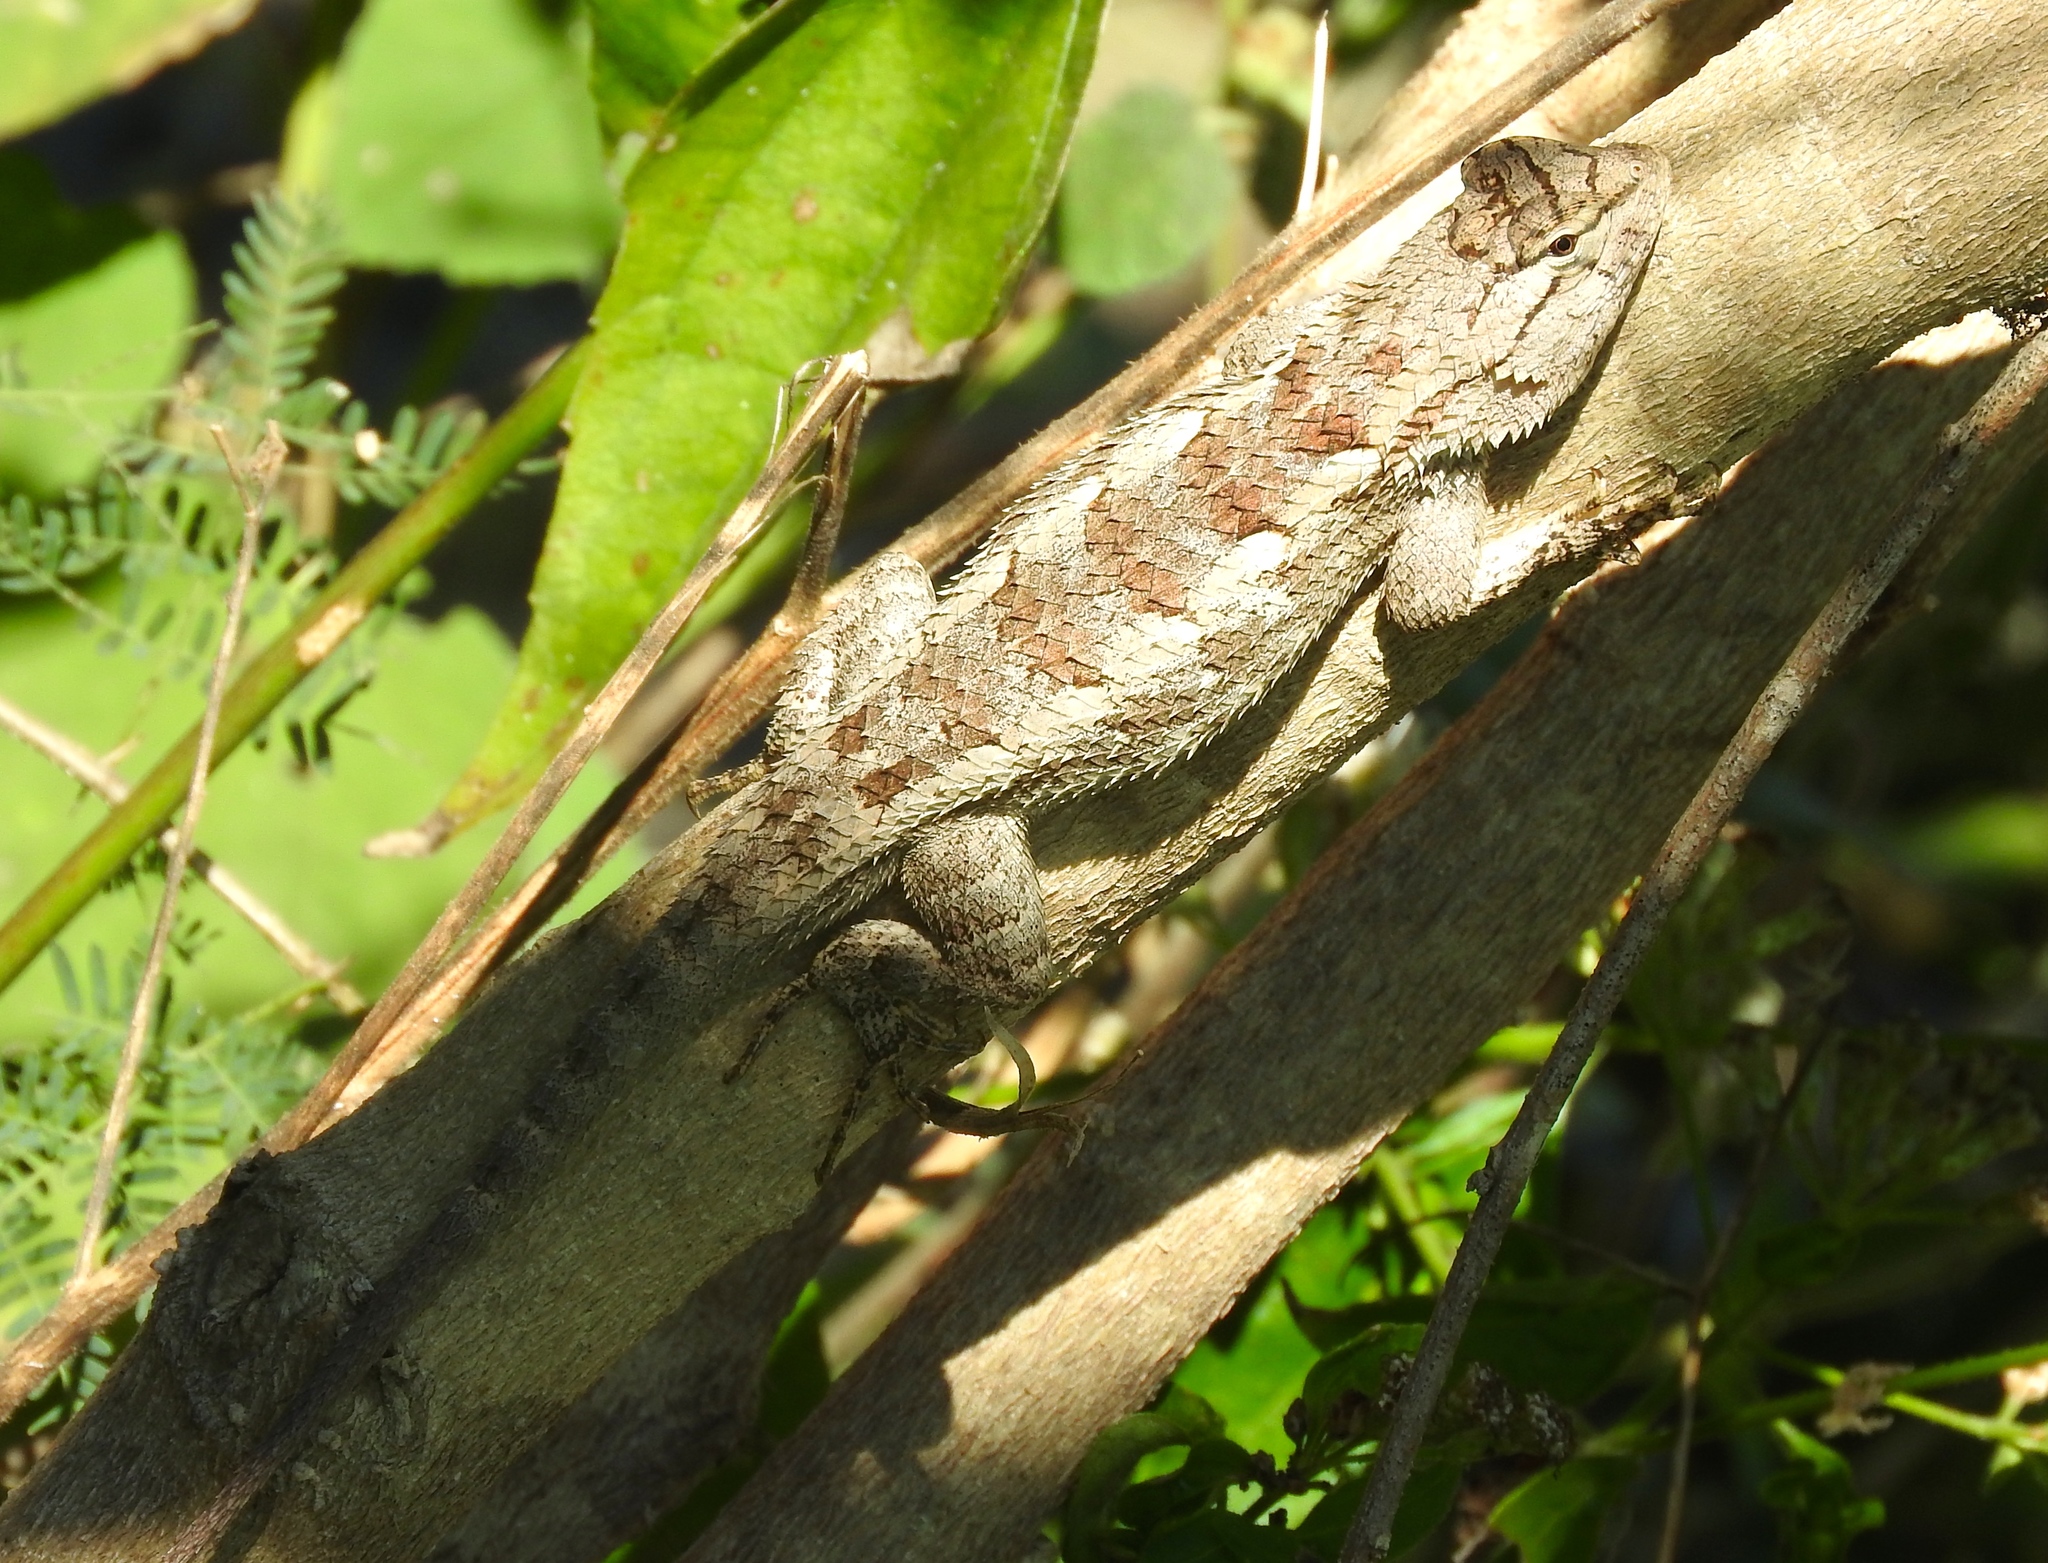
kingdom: Animalia
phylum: Chordata
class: Squamata
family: Phrynosomatidae
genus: Sceloporus
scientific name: Sceloporus clarkii
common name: Clark's spiny lizard
